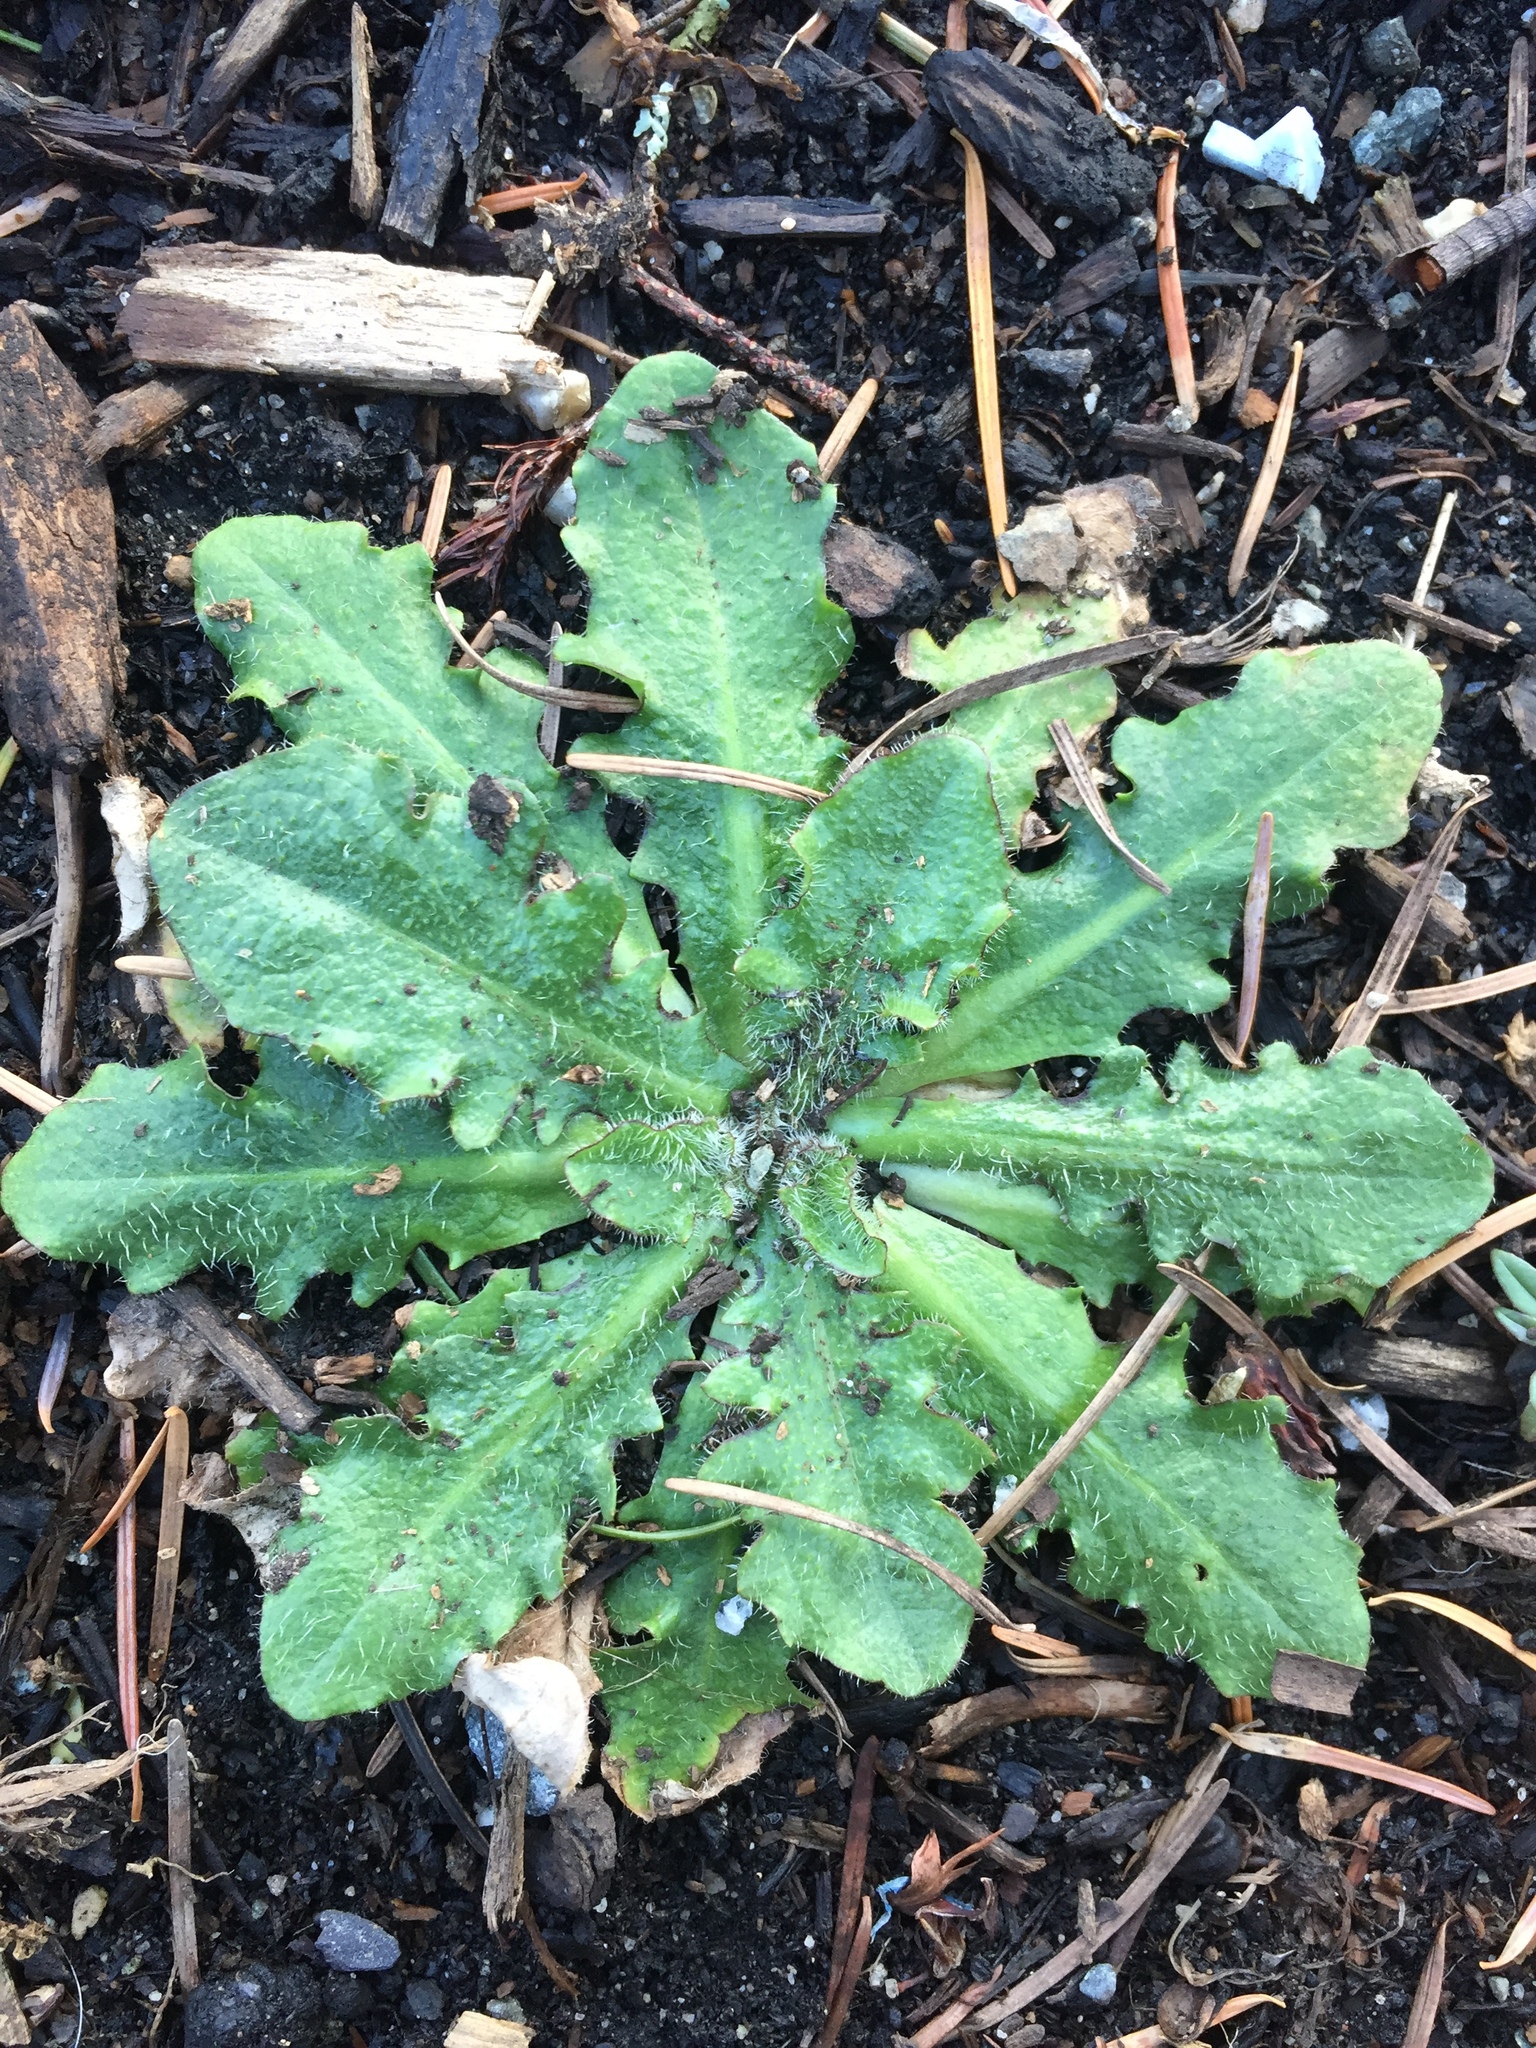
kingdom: Plantae
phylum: Tracheophyta
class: Magnoliopsida
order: Asterales
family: Asteraceae
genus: Hypochaeris
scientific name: Hypochaeris radicata
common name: Flatweed
